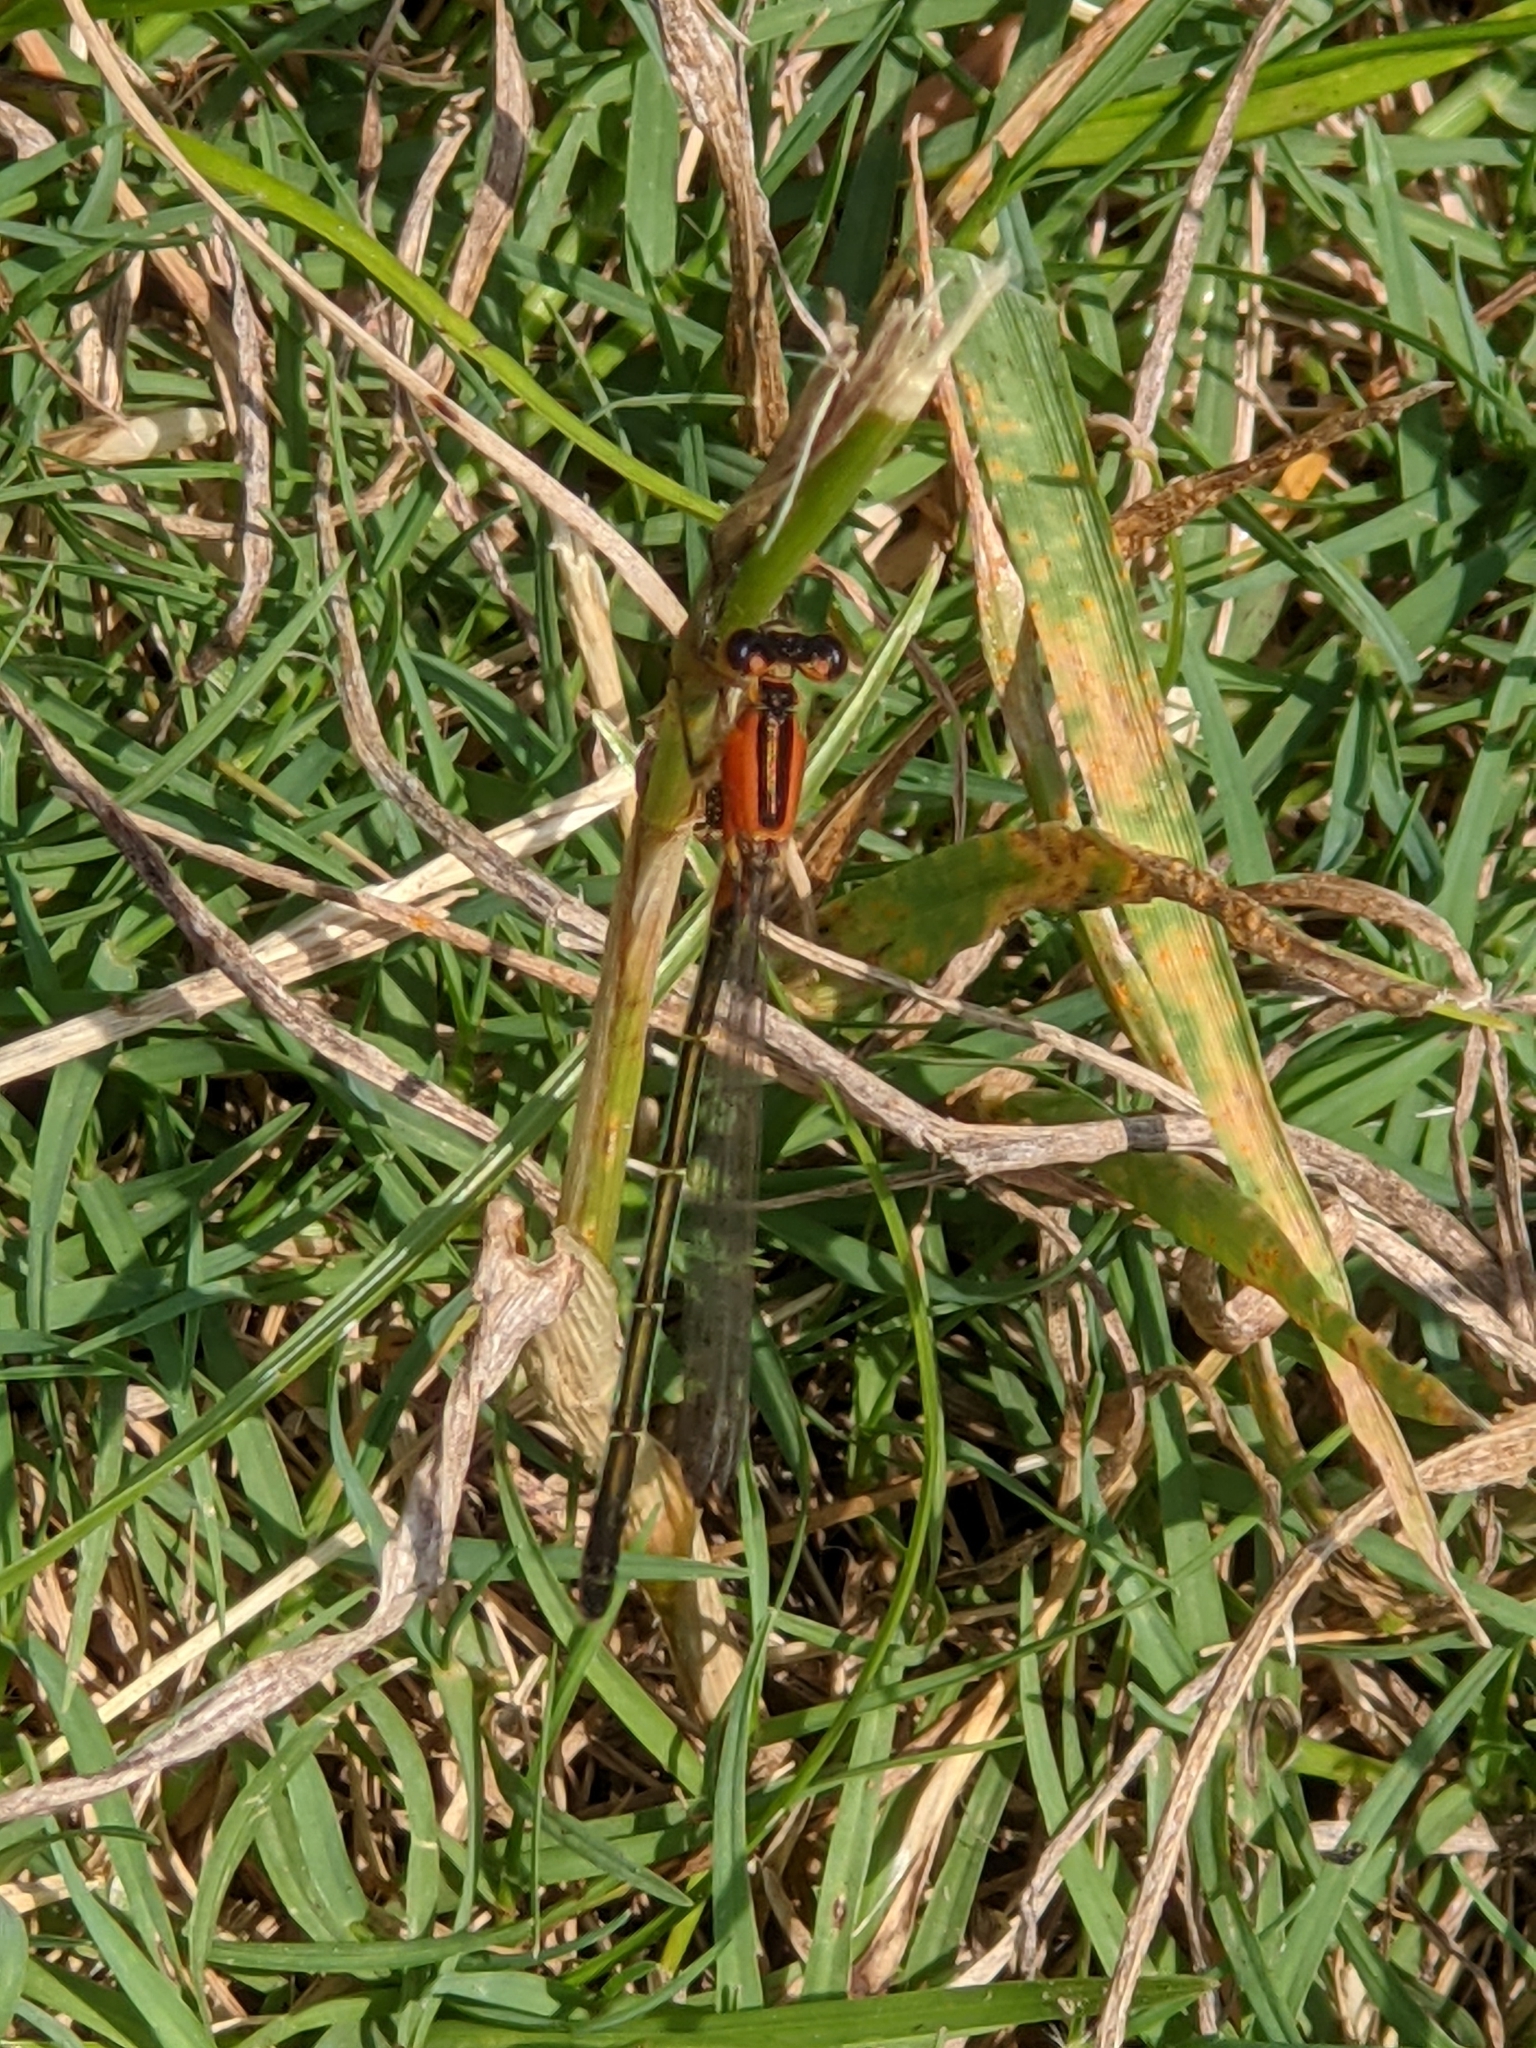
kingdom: Animalia
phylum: Arthropoda
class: Insecta
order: Odonata
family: Coenagrionidae
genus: Ischnura
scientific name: Ischnura ramburii
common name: Rambur's forktail
